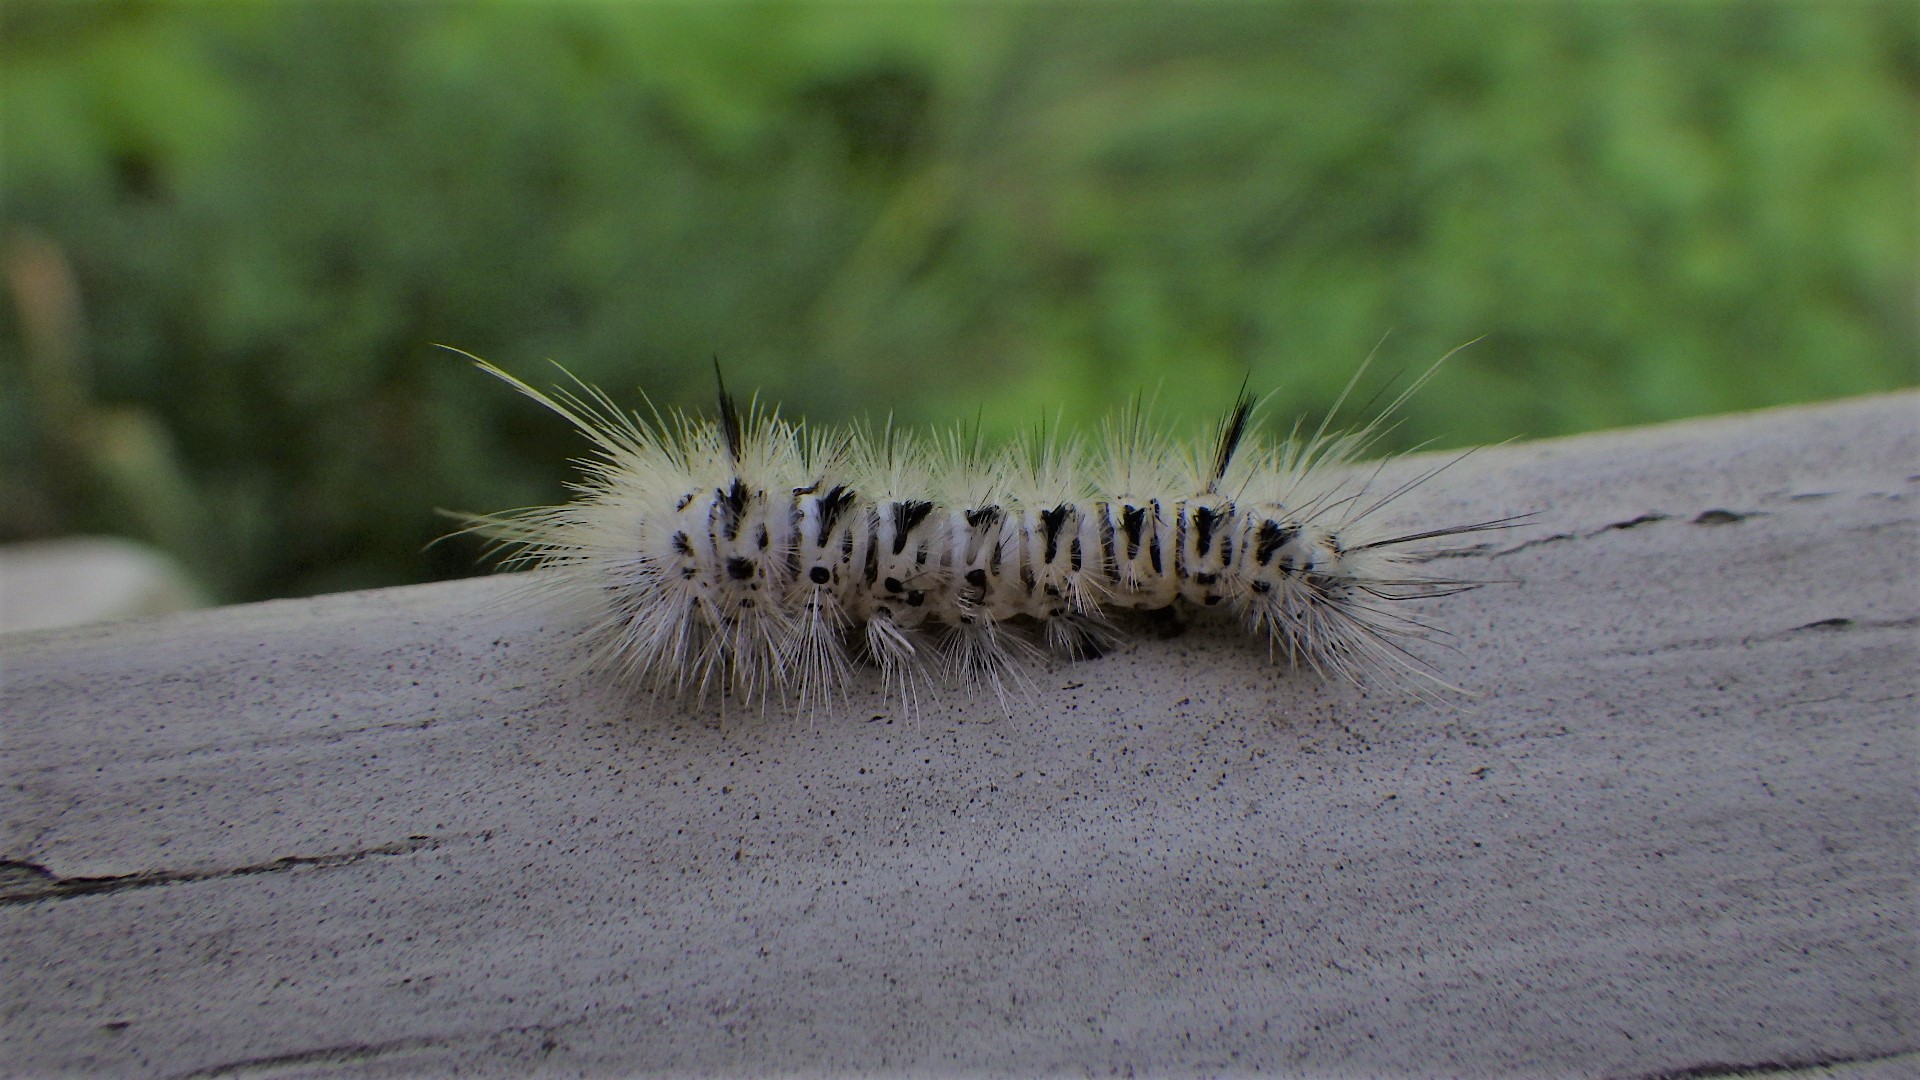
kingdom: Animalia
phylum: Arthropoda
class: Insecta
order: Lepidoptera
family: Erebidae
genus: Lophocampa
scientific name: Lophocampa caryae
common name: Hickory tussock moth
